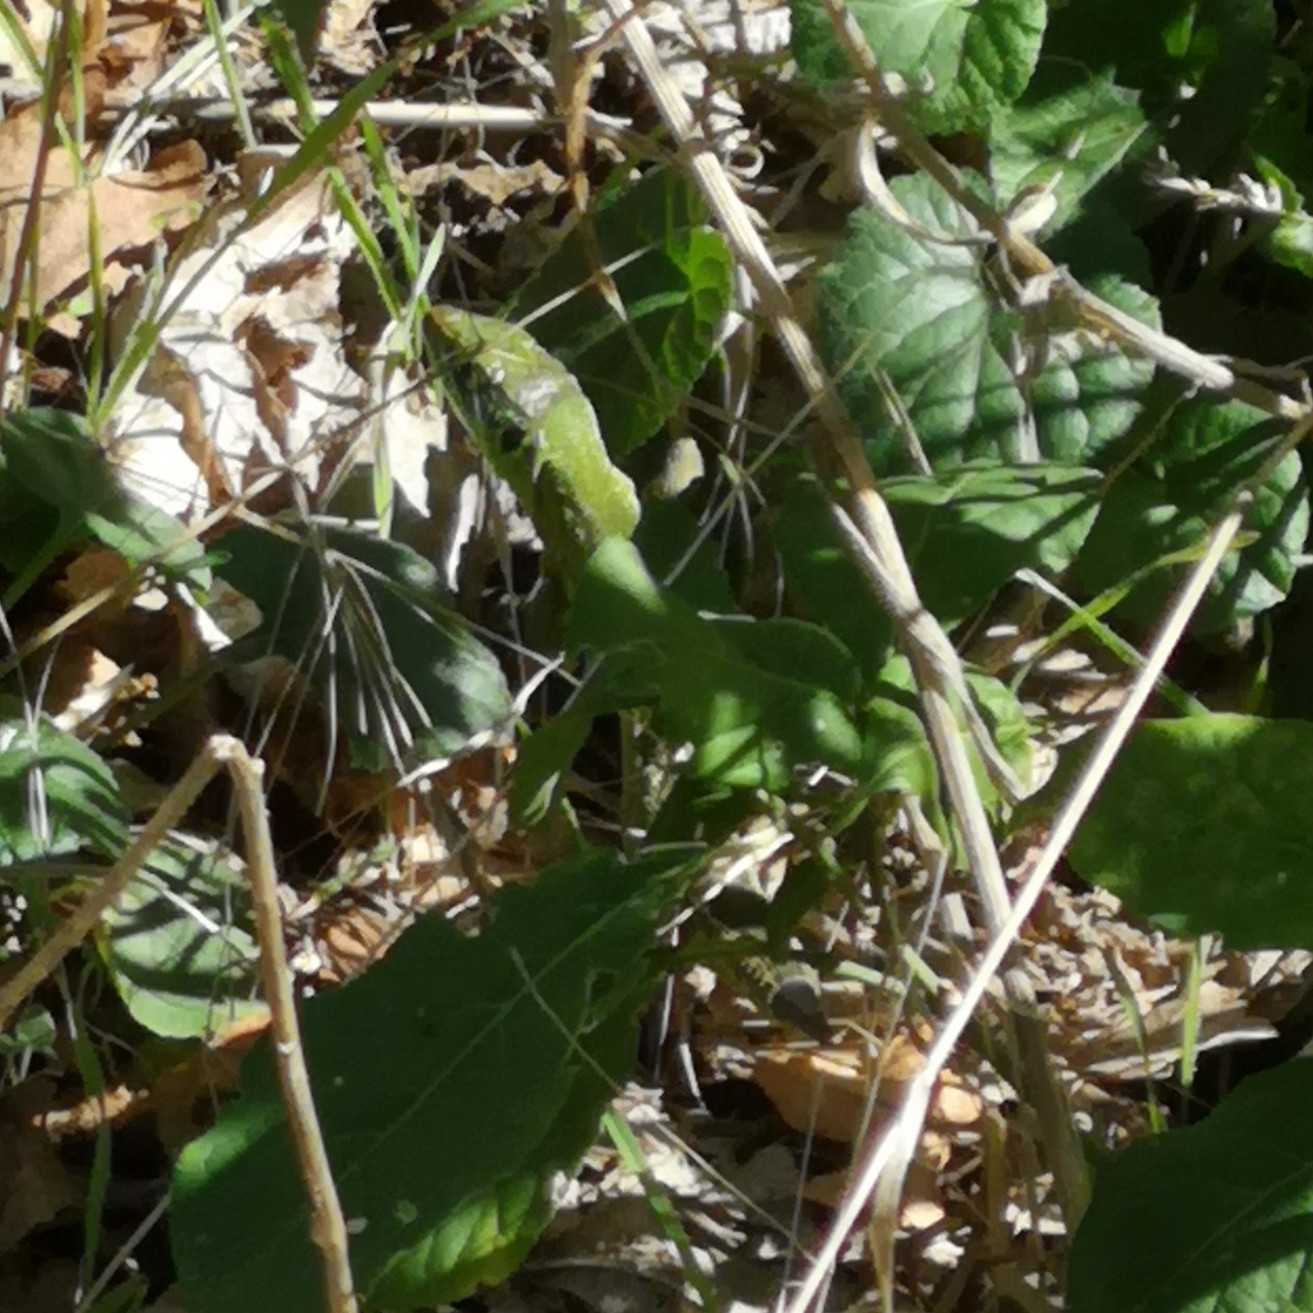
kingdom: Animalia
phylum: Chordata
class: Squamata
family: Lacertidae
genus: Lacerta
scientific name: Lacerta bilineata
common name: Western green lizard
